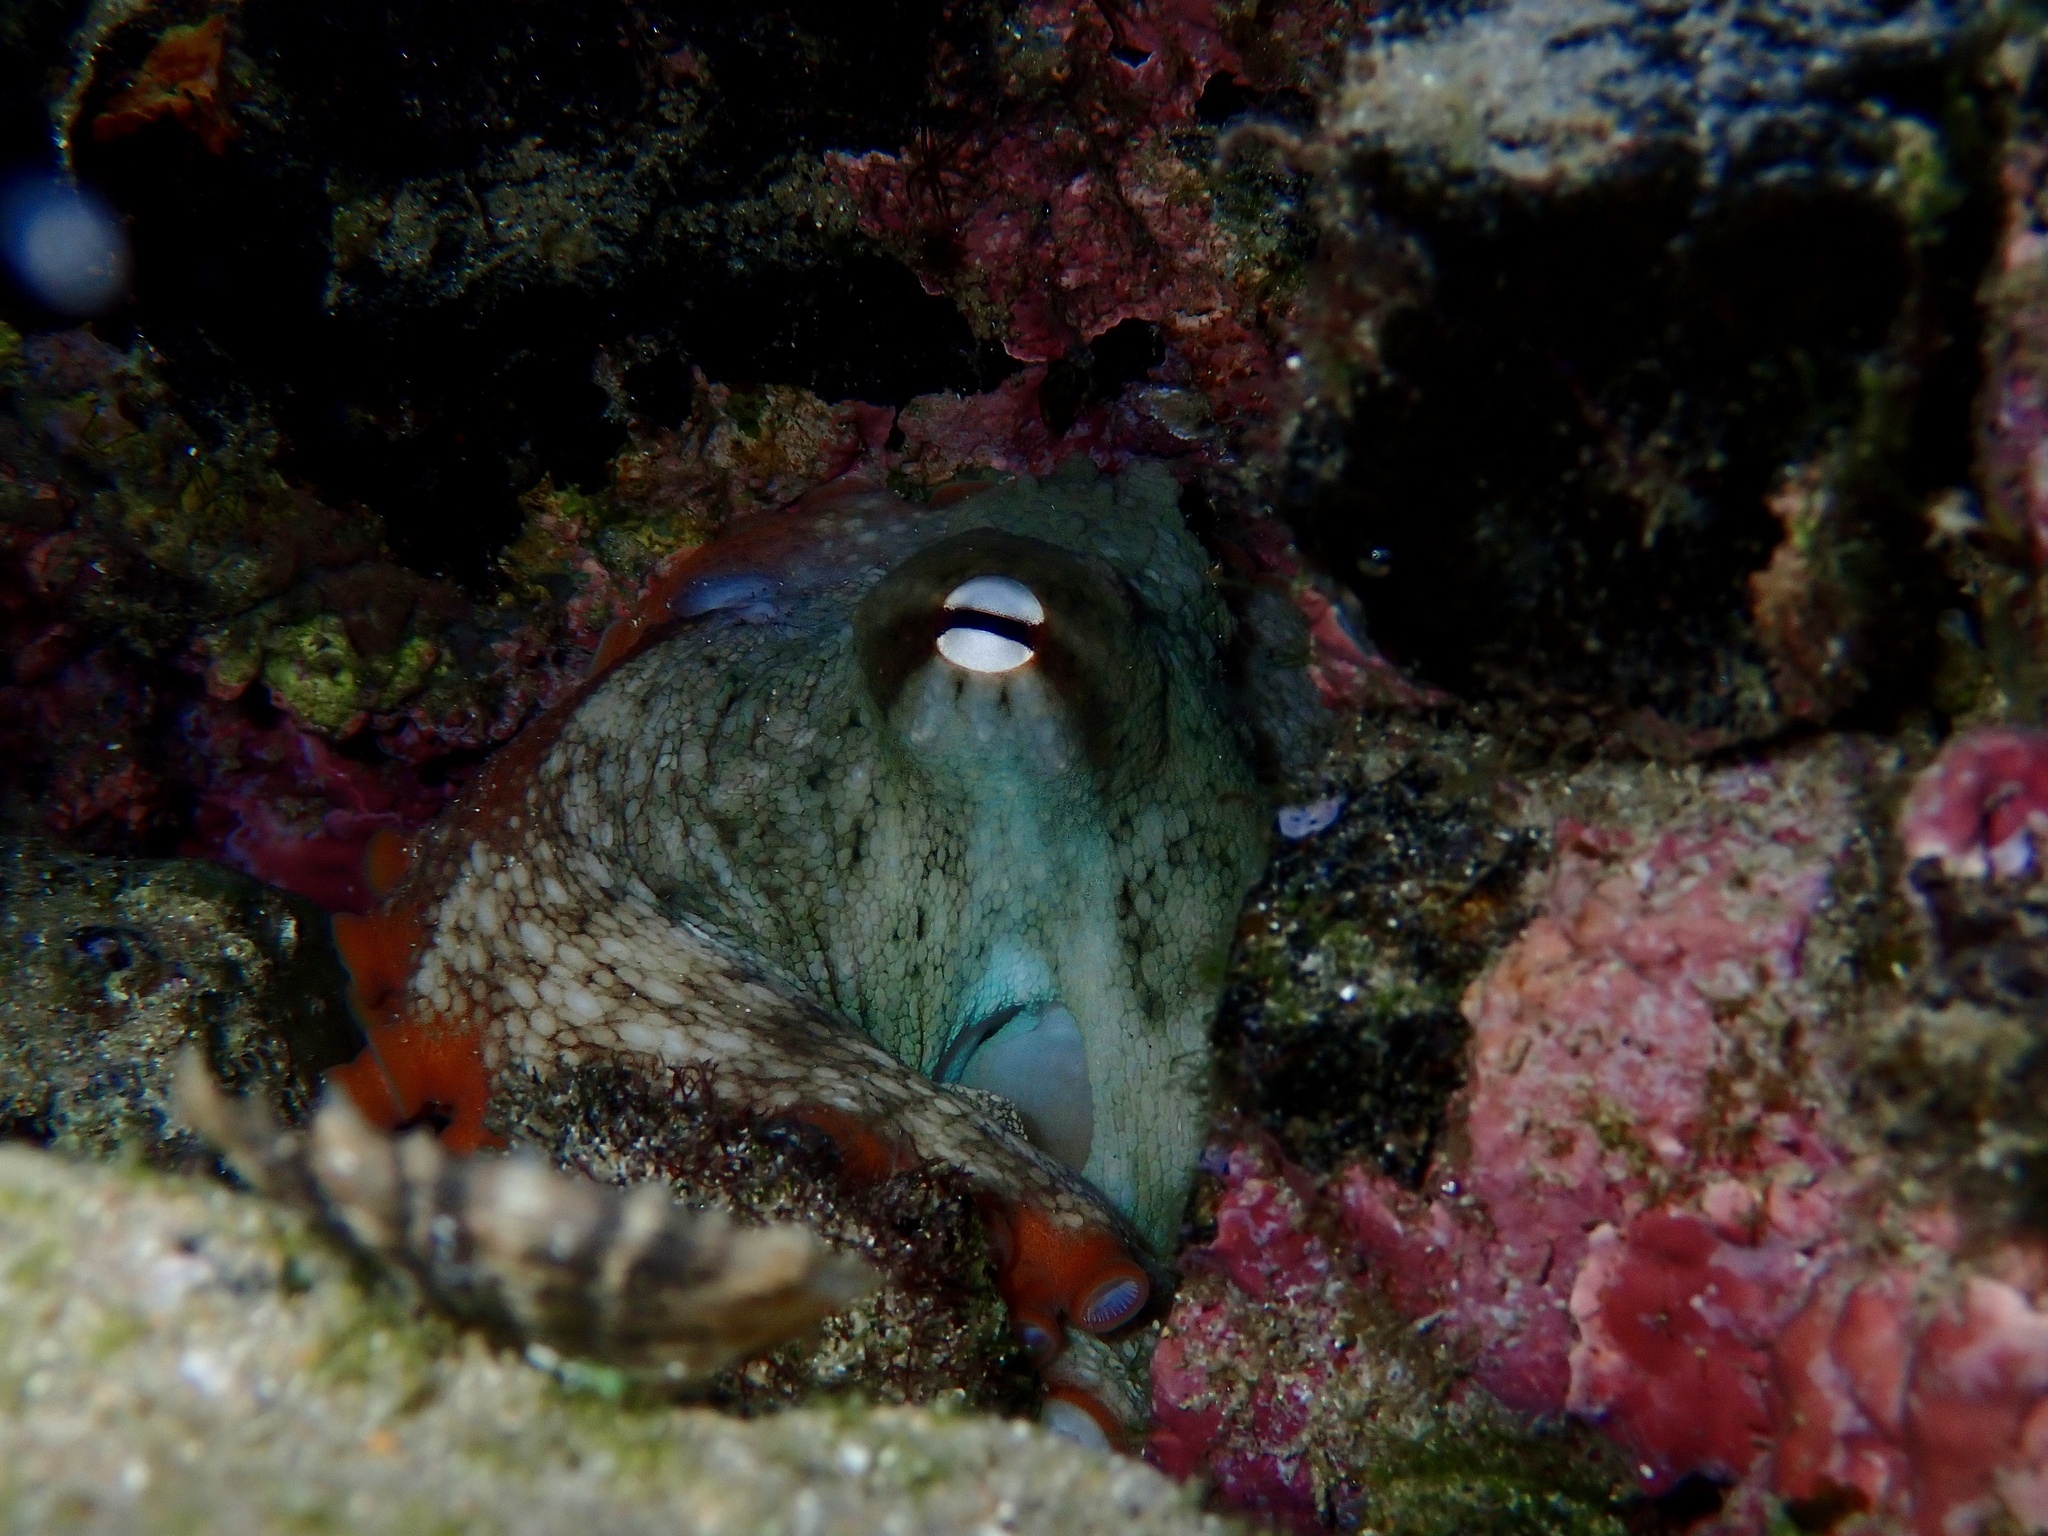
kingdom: Animalia
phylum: Mollusca
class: Cephalopoda
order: Octopoda
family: Octopodidae
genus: Octopus
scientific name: Octopus tetricus
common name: Sydney octopus
